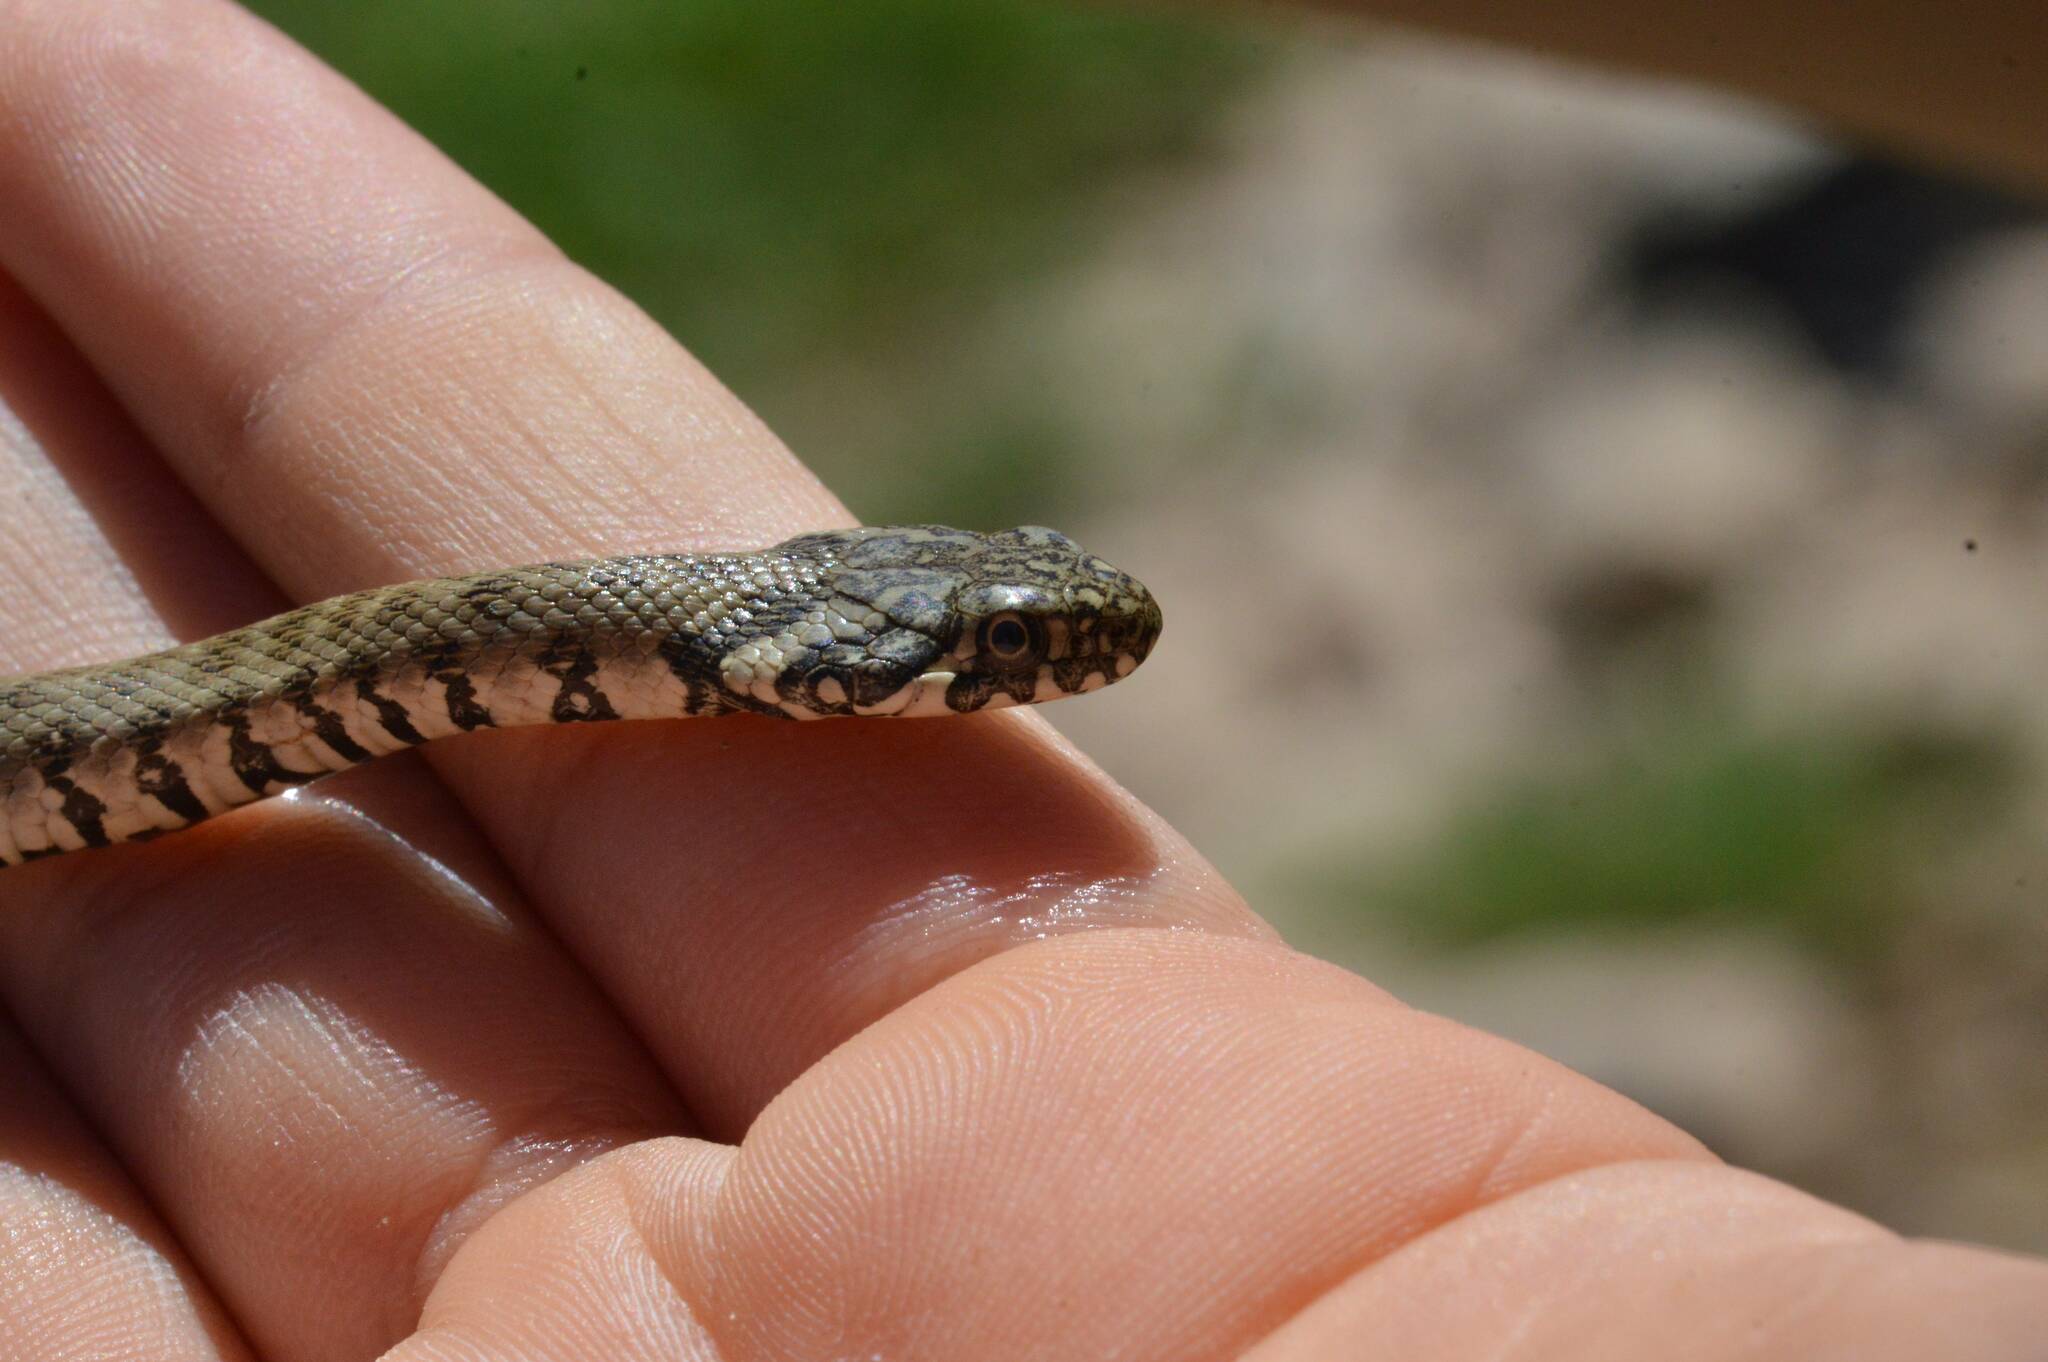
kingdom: Animalia
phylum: Chordata
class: Squamata
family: Colubridae
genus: Natrix
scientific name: Natrix maura
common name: Viperine water snake
